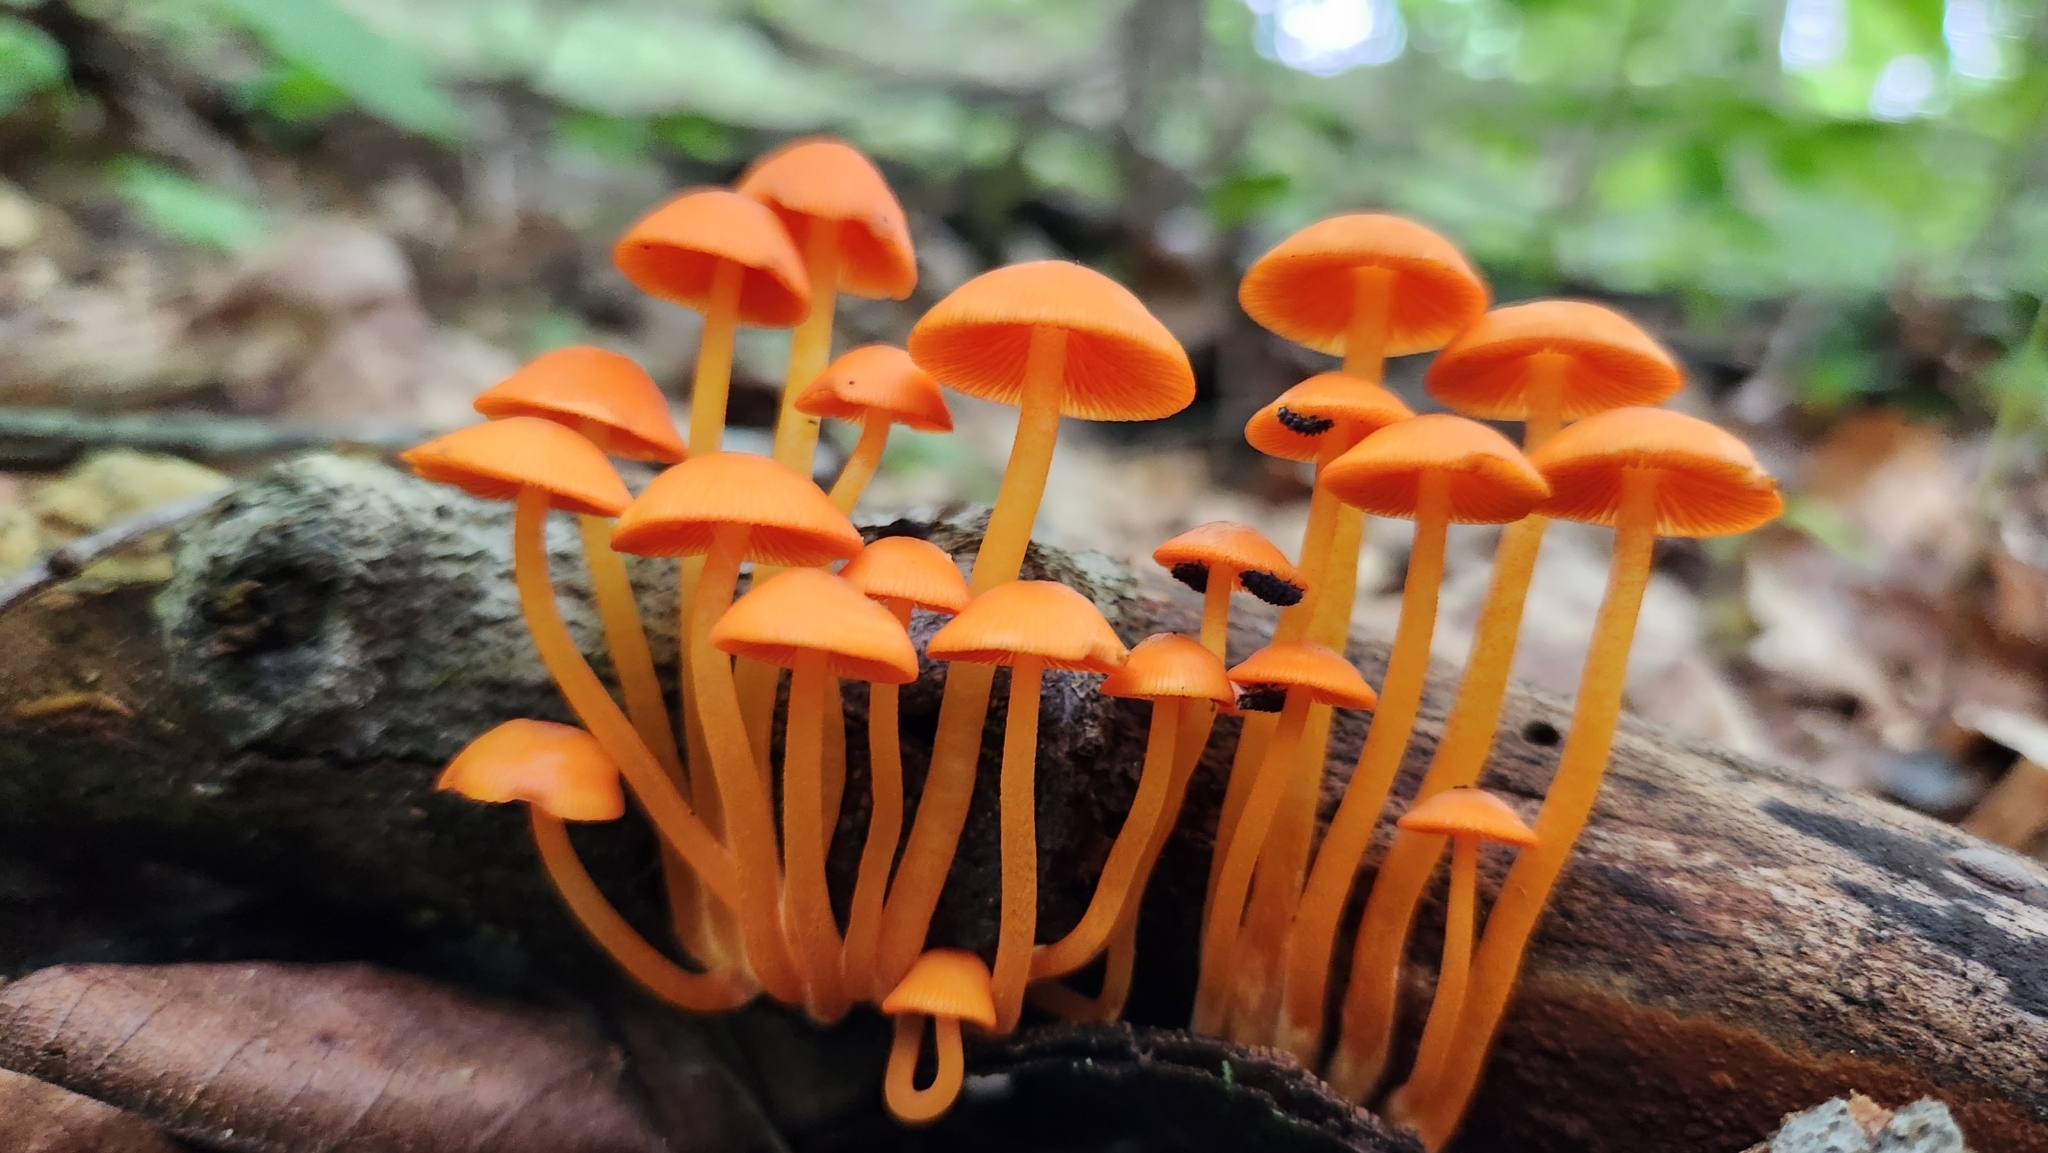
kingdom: Fungi
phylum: Basidiomycota
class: Agaricomycetes
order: Agaricales
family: Mycenaceae
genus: Mycena
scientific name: Mycena leaiana
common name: Orange mycena
